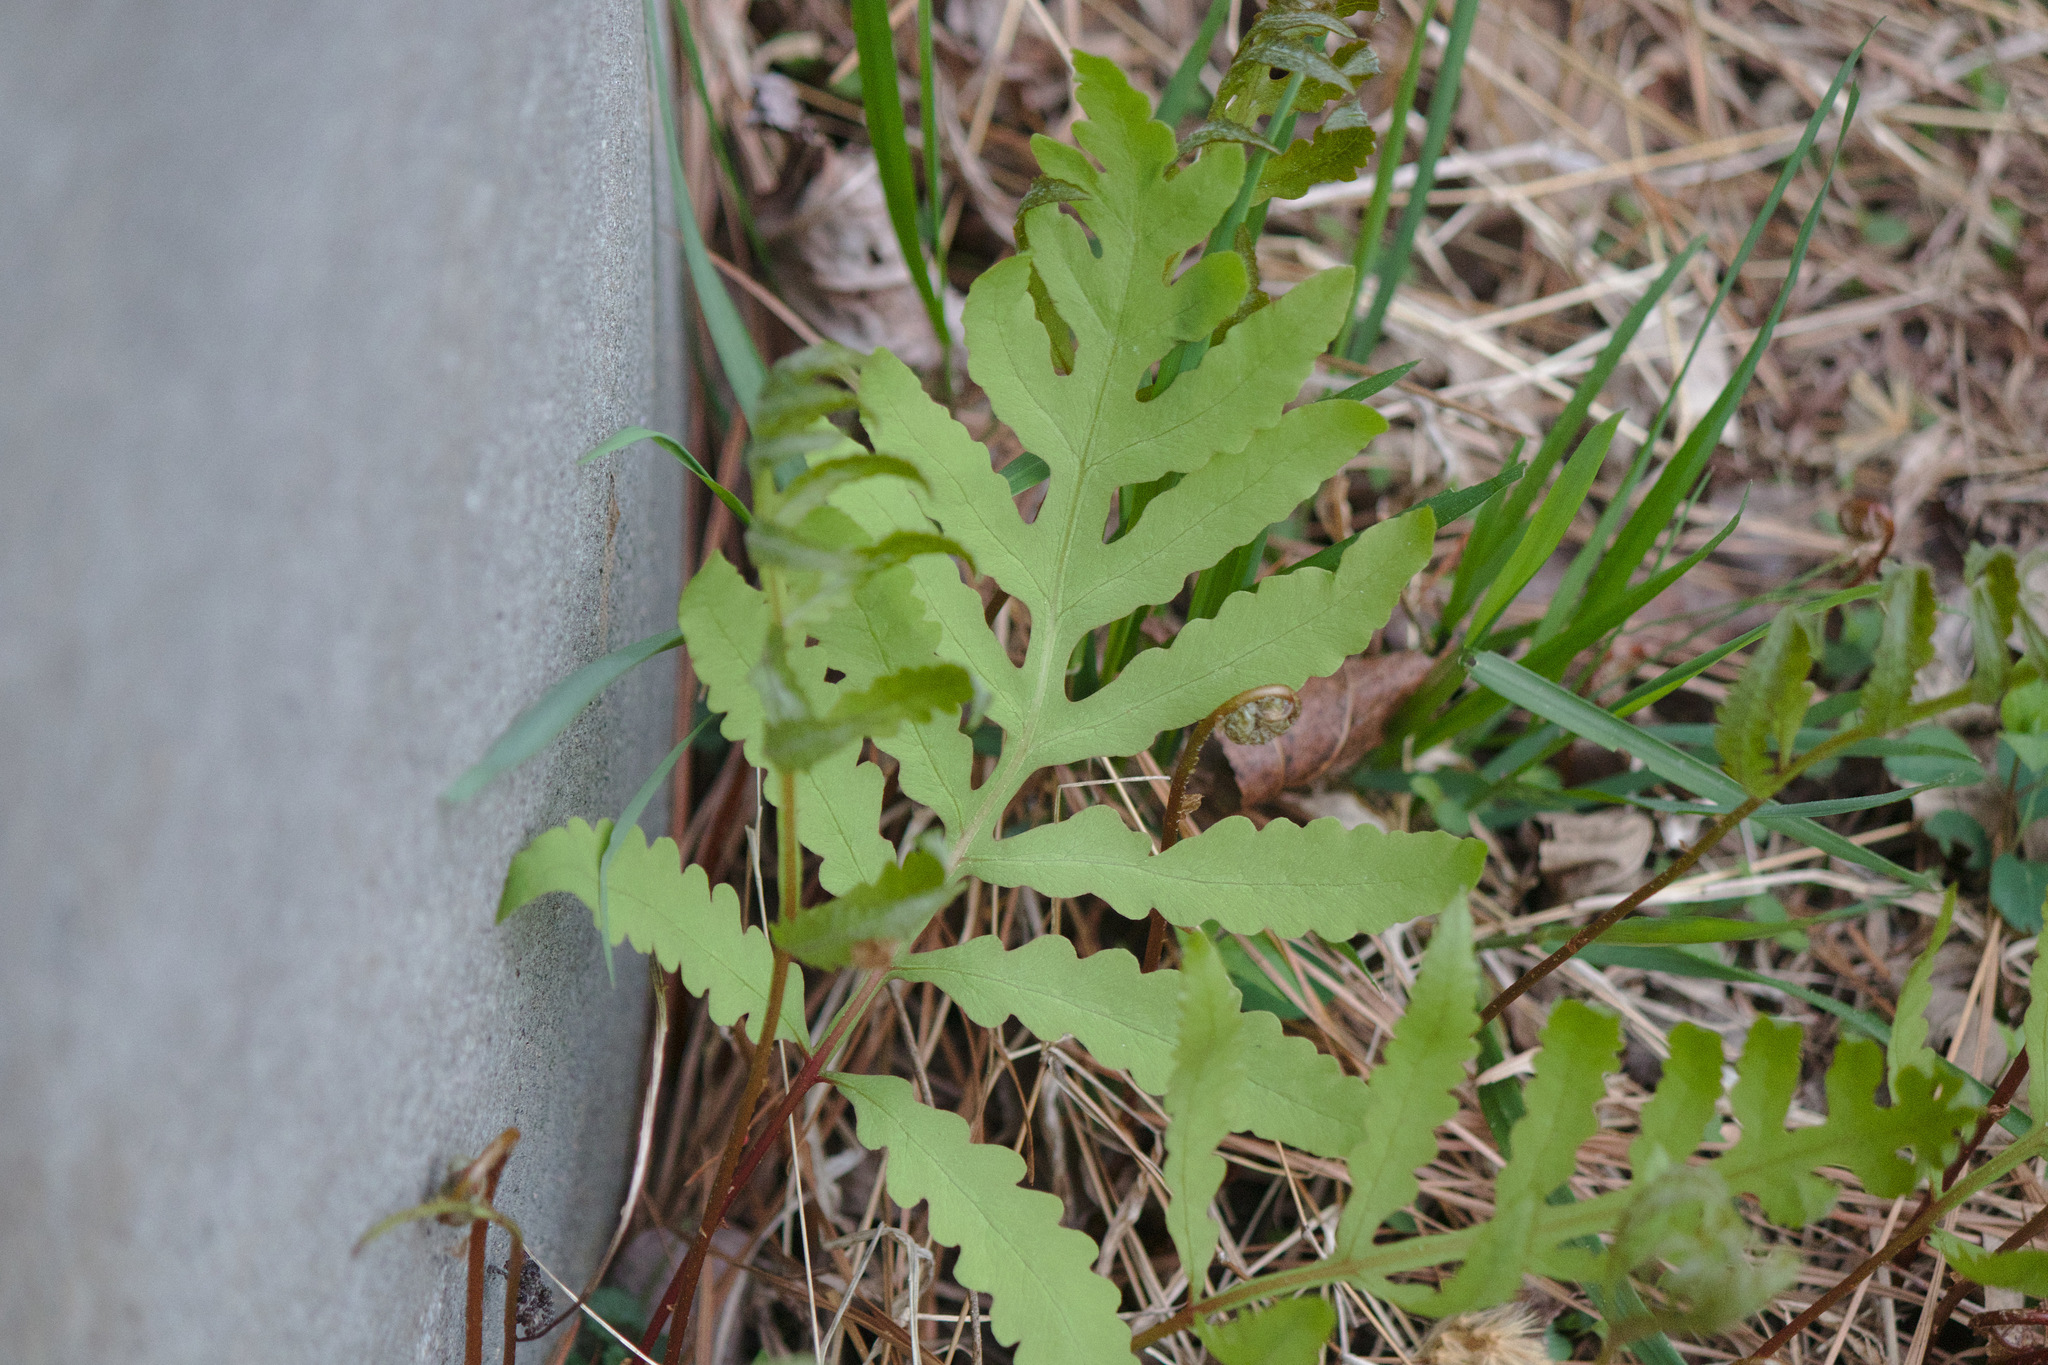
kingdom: Plantae
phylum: Tracheophyta
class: Polypodiopsida
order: Polypodiales
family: Onocleaceae
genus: Onoclea
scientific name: Onoclea sensibilis
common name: Sensitive fern
